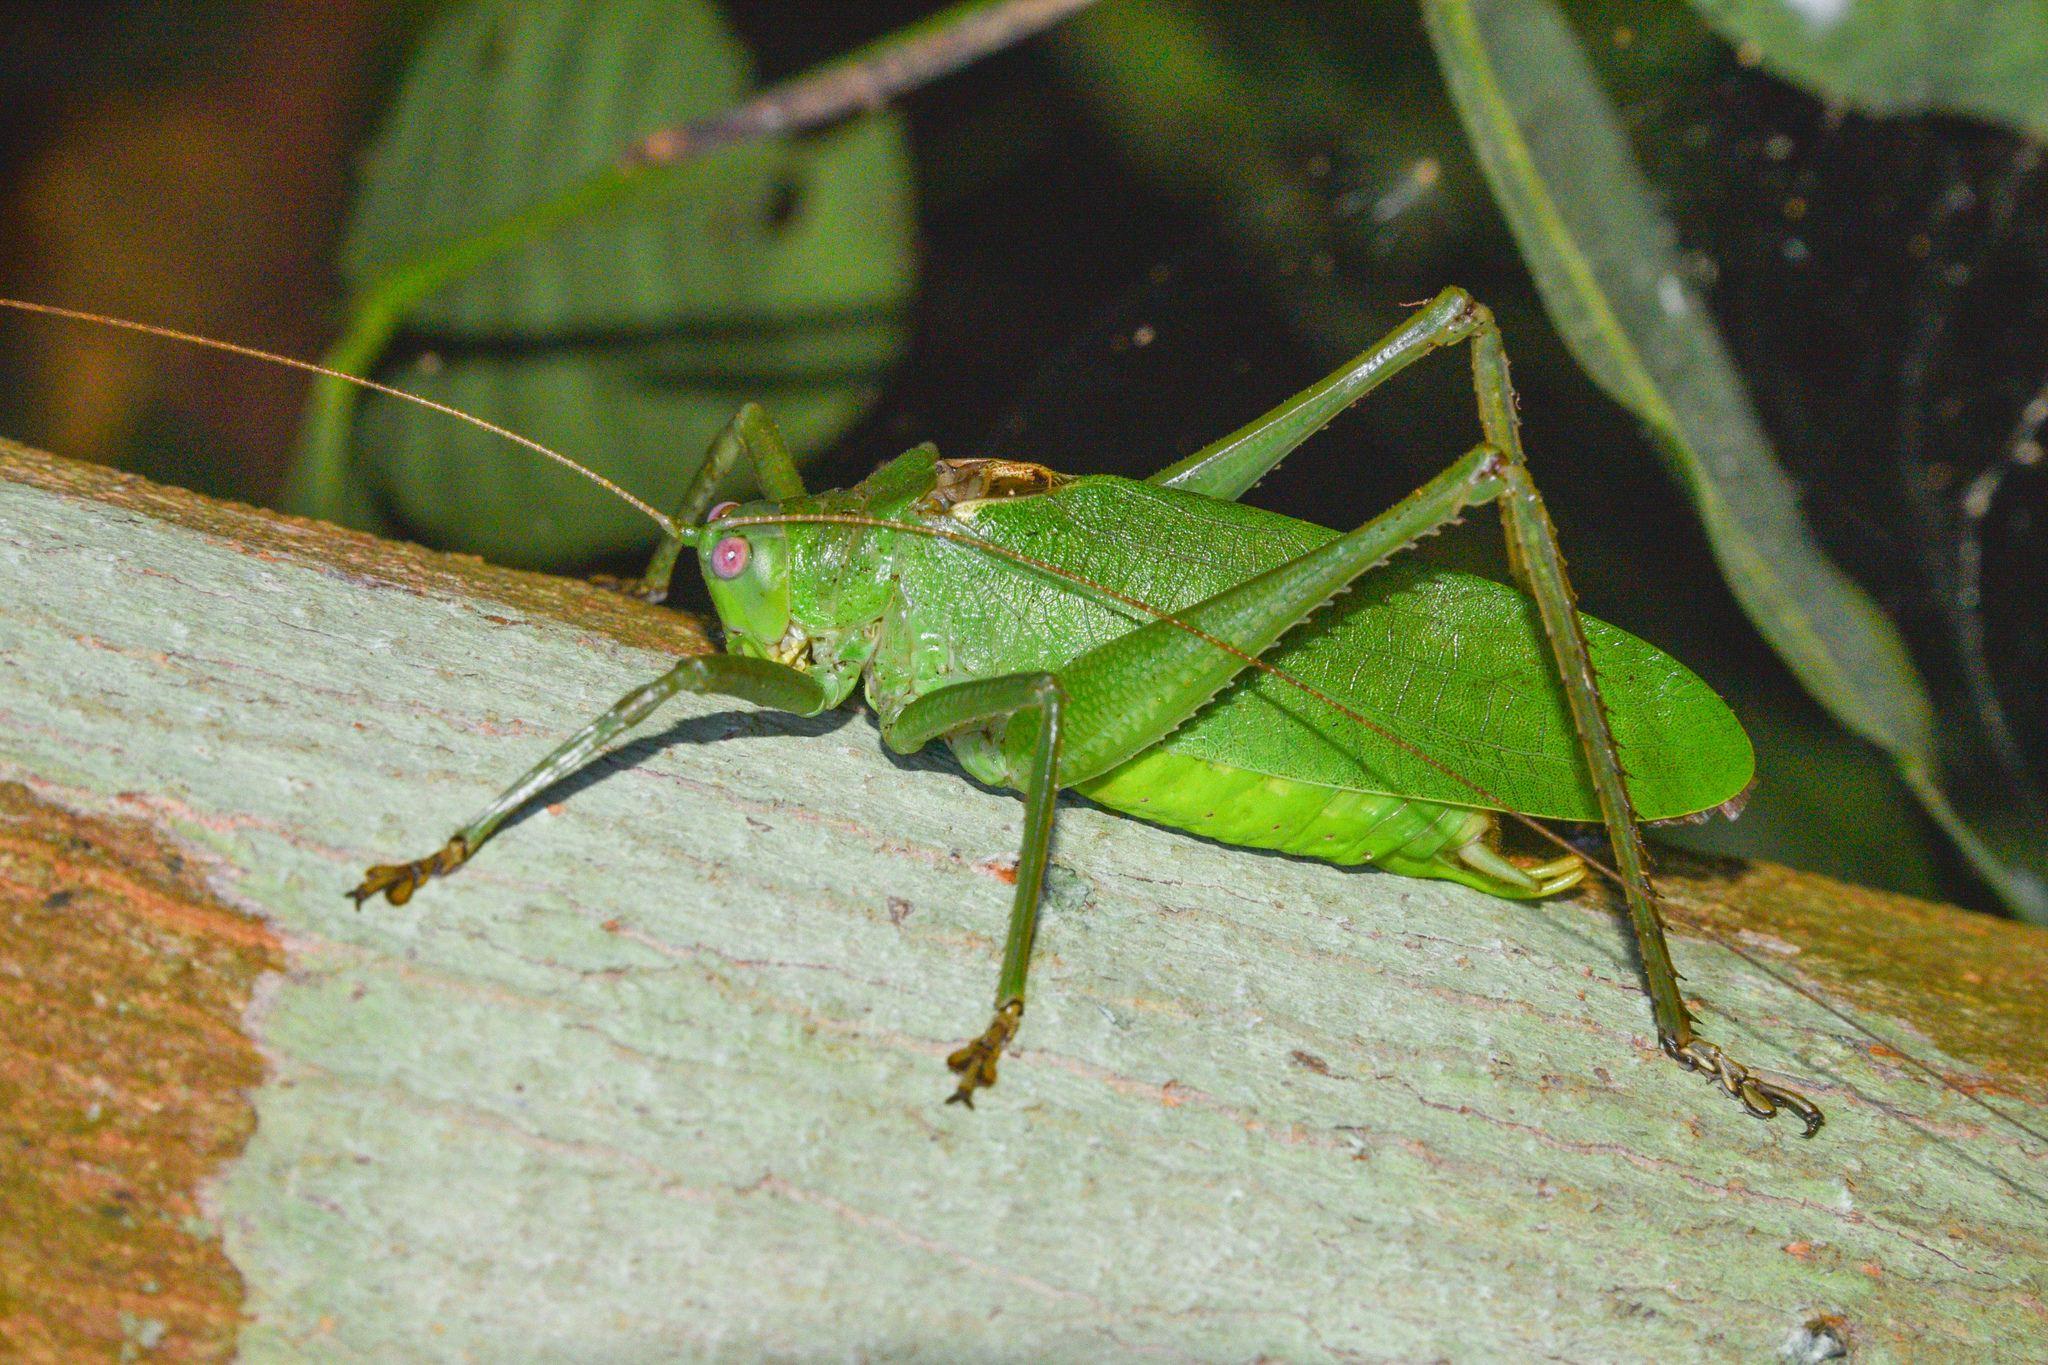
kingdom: Animalia
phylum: Arthropoda
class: Insecta
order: Orthoptera
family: Tettigoniidae
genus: Diophanes
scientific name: Diophanes rosescens
